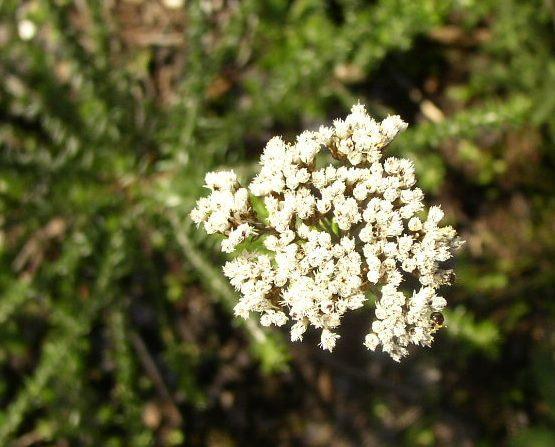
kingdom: Plantae
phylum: Tracheophyta
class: Magnoliopsida
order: Asterales
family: Asteraceae
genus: Metalasia
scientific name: Metalasia densa
